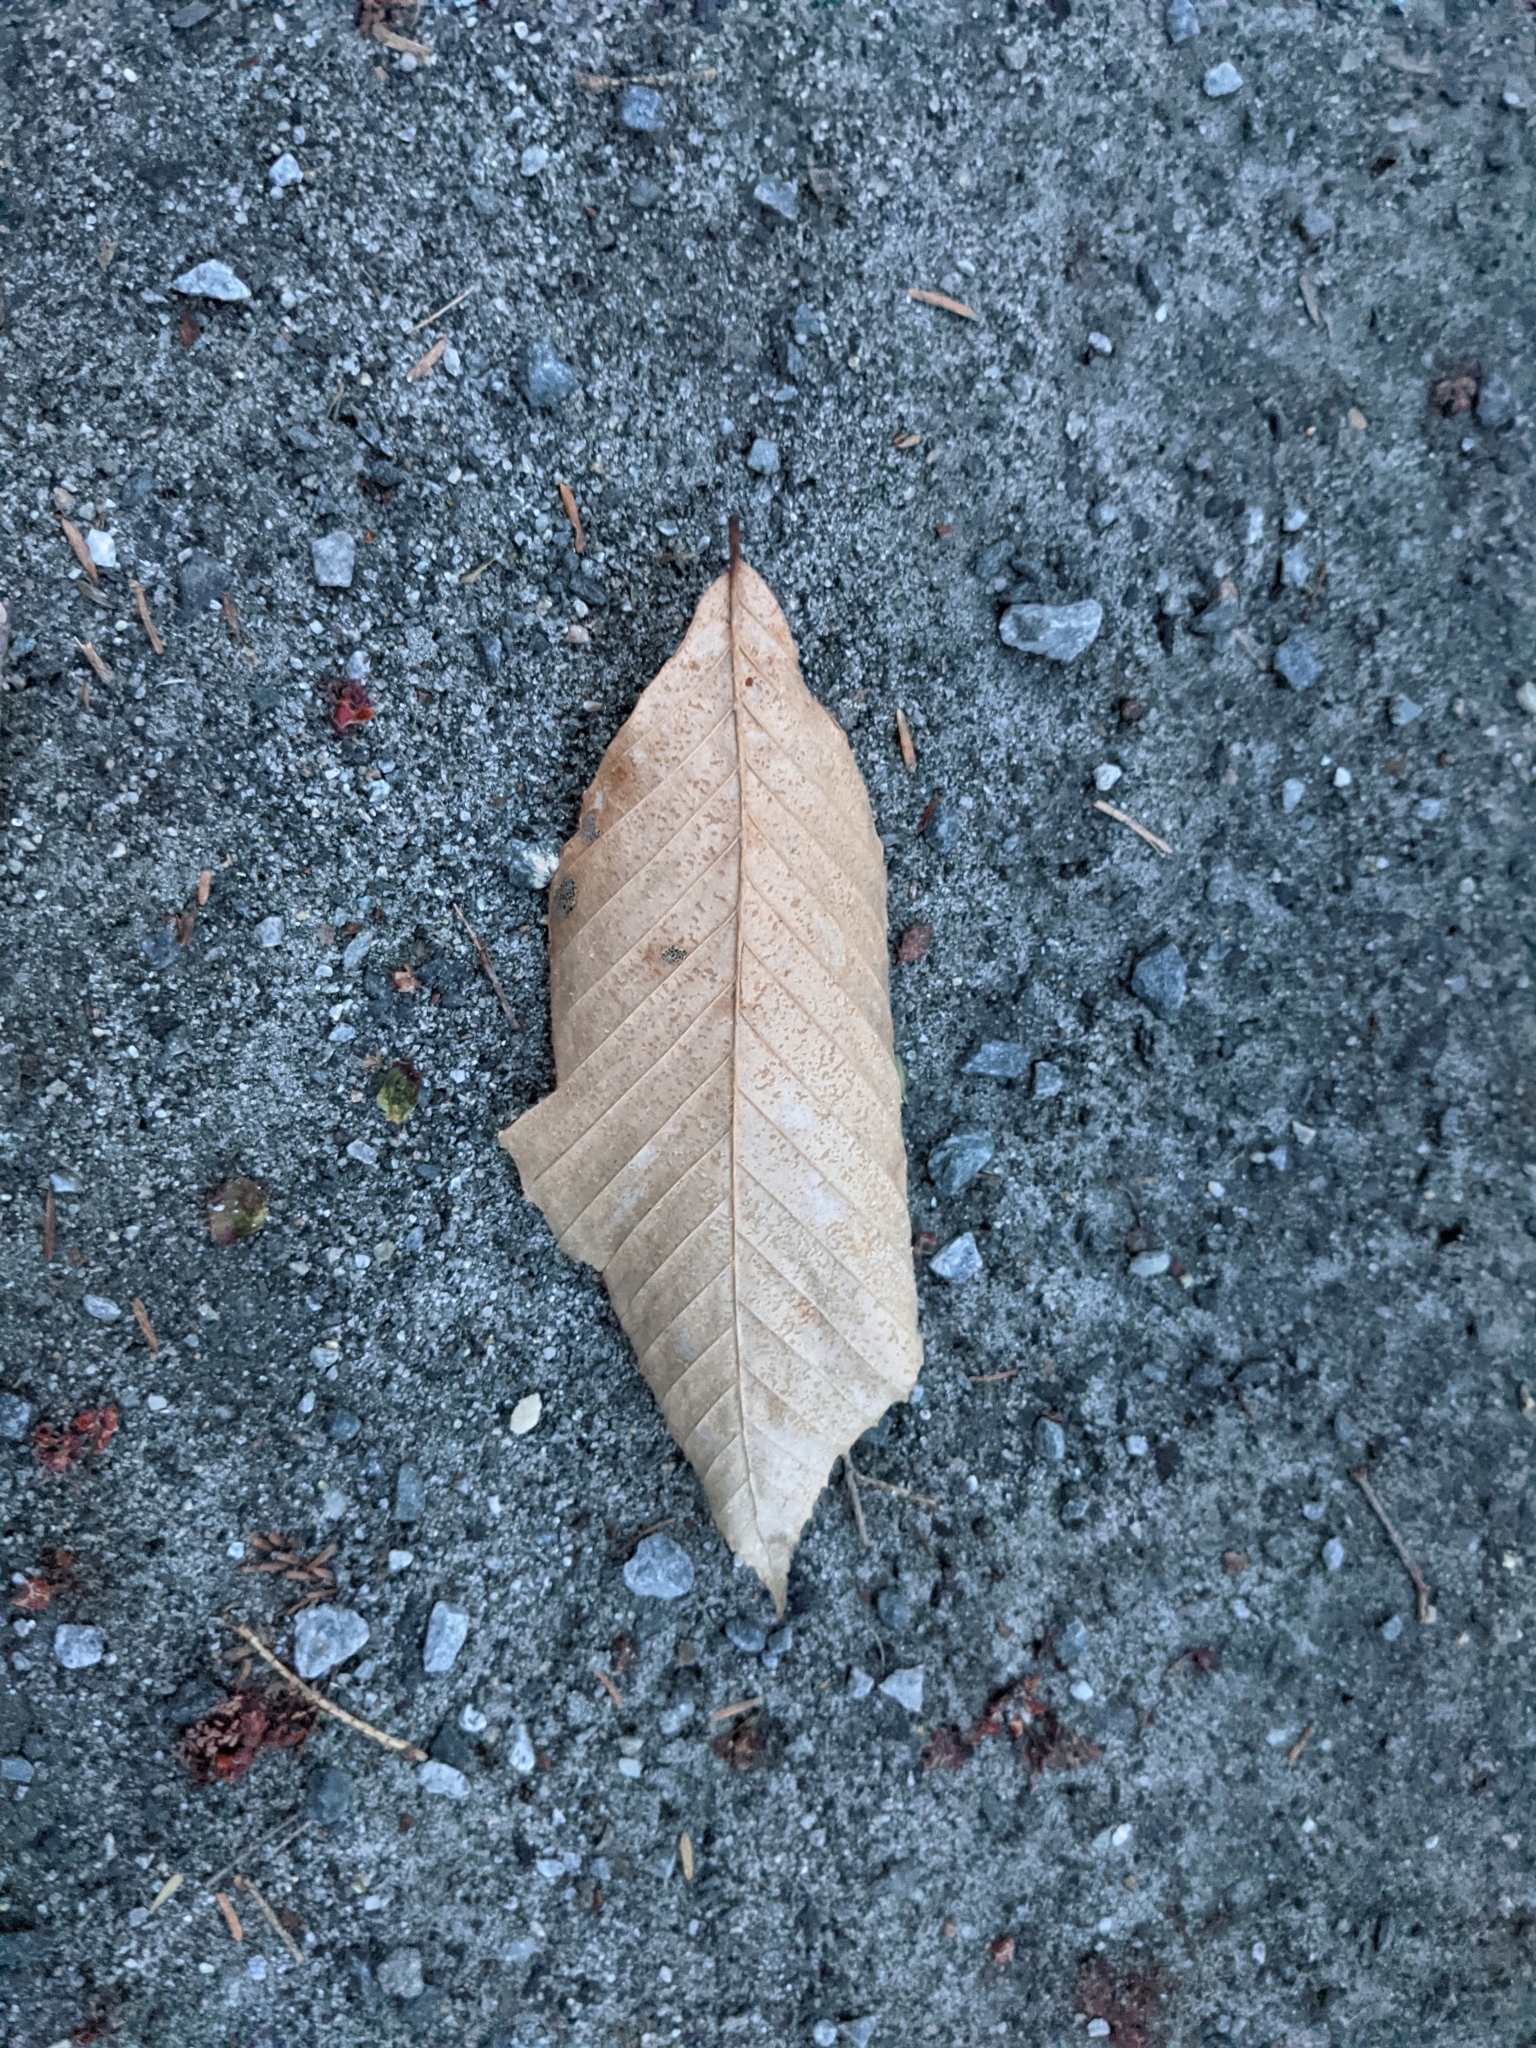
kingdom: Plantae
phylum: Tracheophyta
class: Magnoliopsida
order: Fagales
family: Fagaceae
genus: Fagus
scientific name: Fagus grandifolia
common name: American beech
